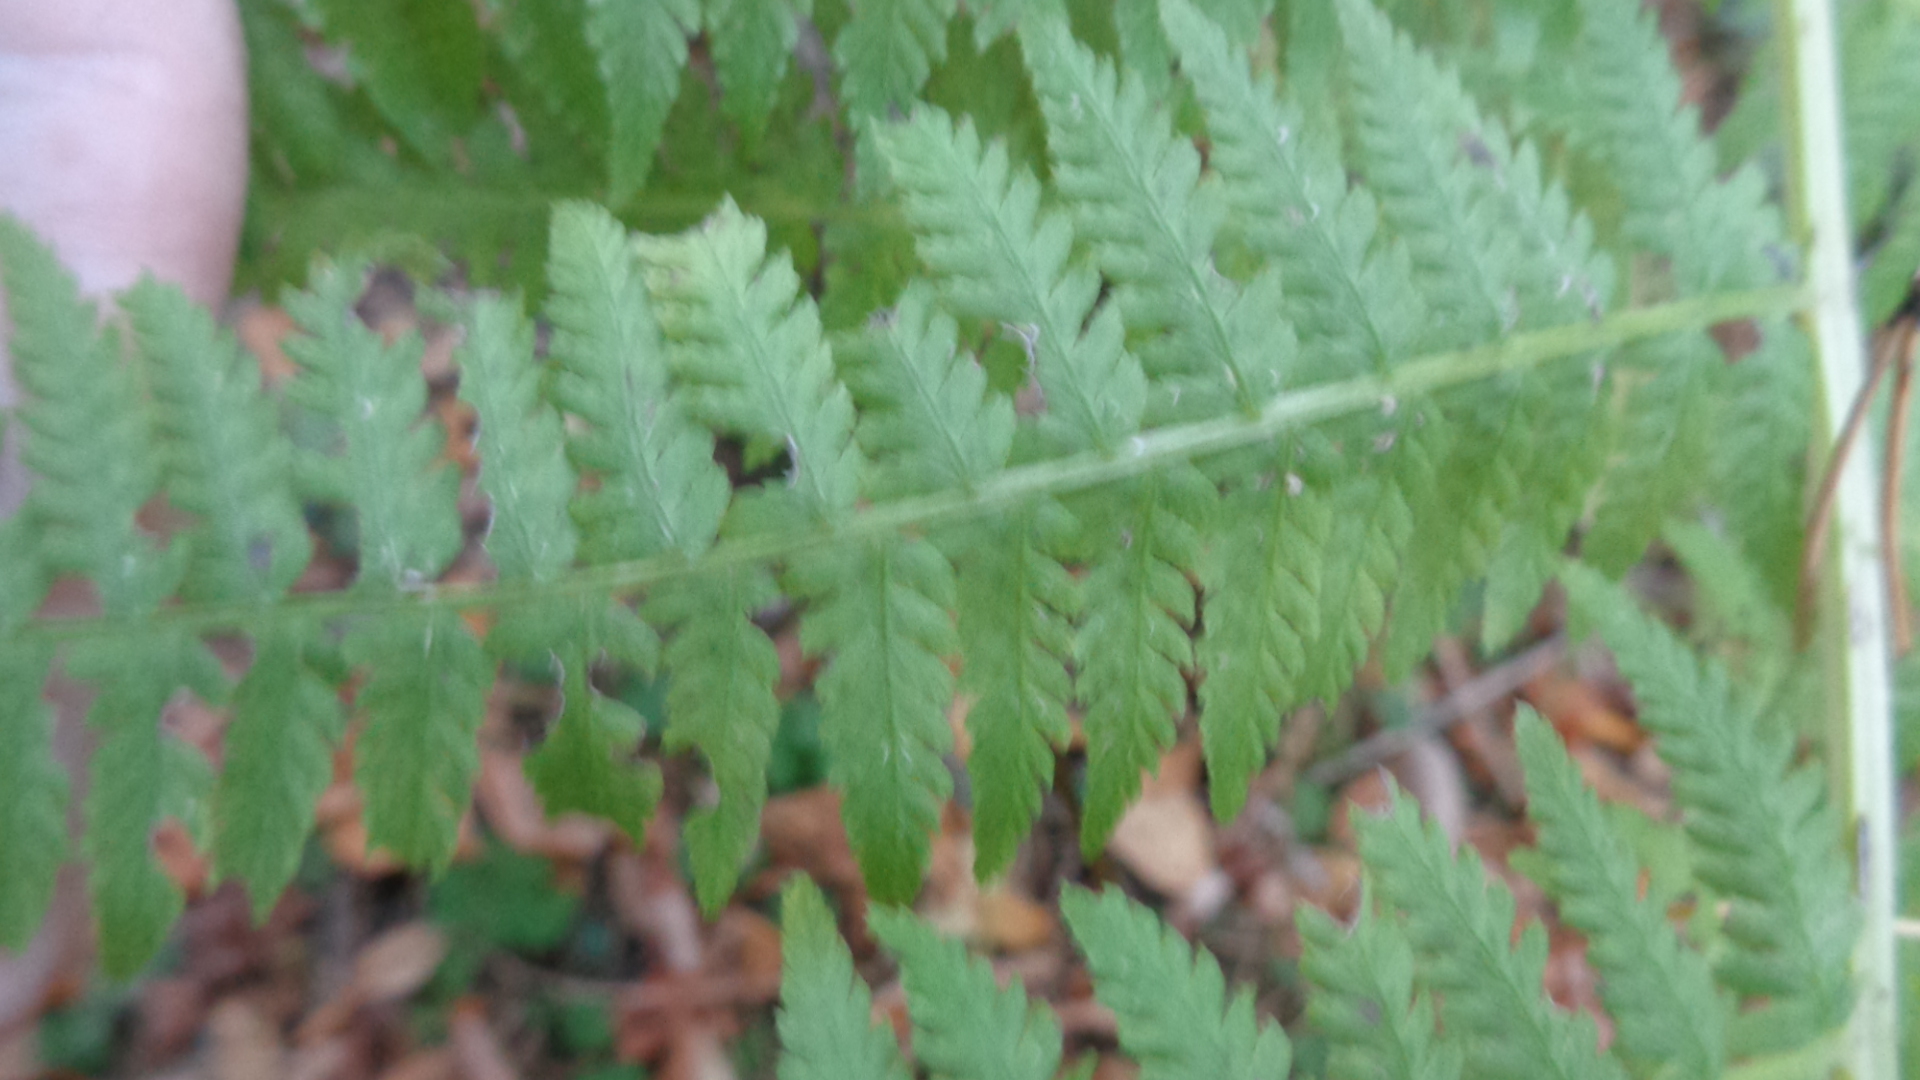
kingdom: Plantae
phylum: Tracheophyta
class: Polypodiopsida
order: Polypodiales
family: Athyriaceae
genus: Athyrium
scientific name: Athyrium filix-femina
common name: Lady fern
